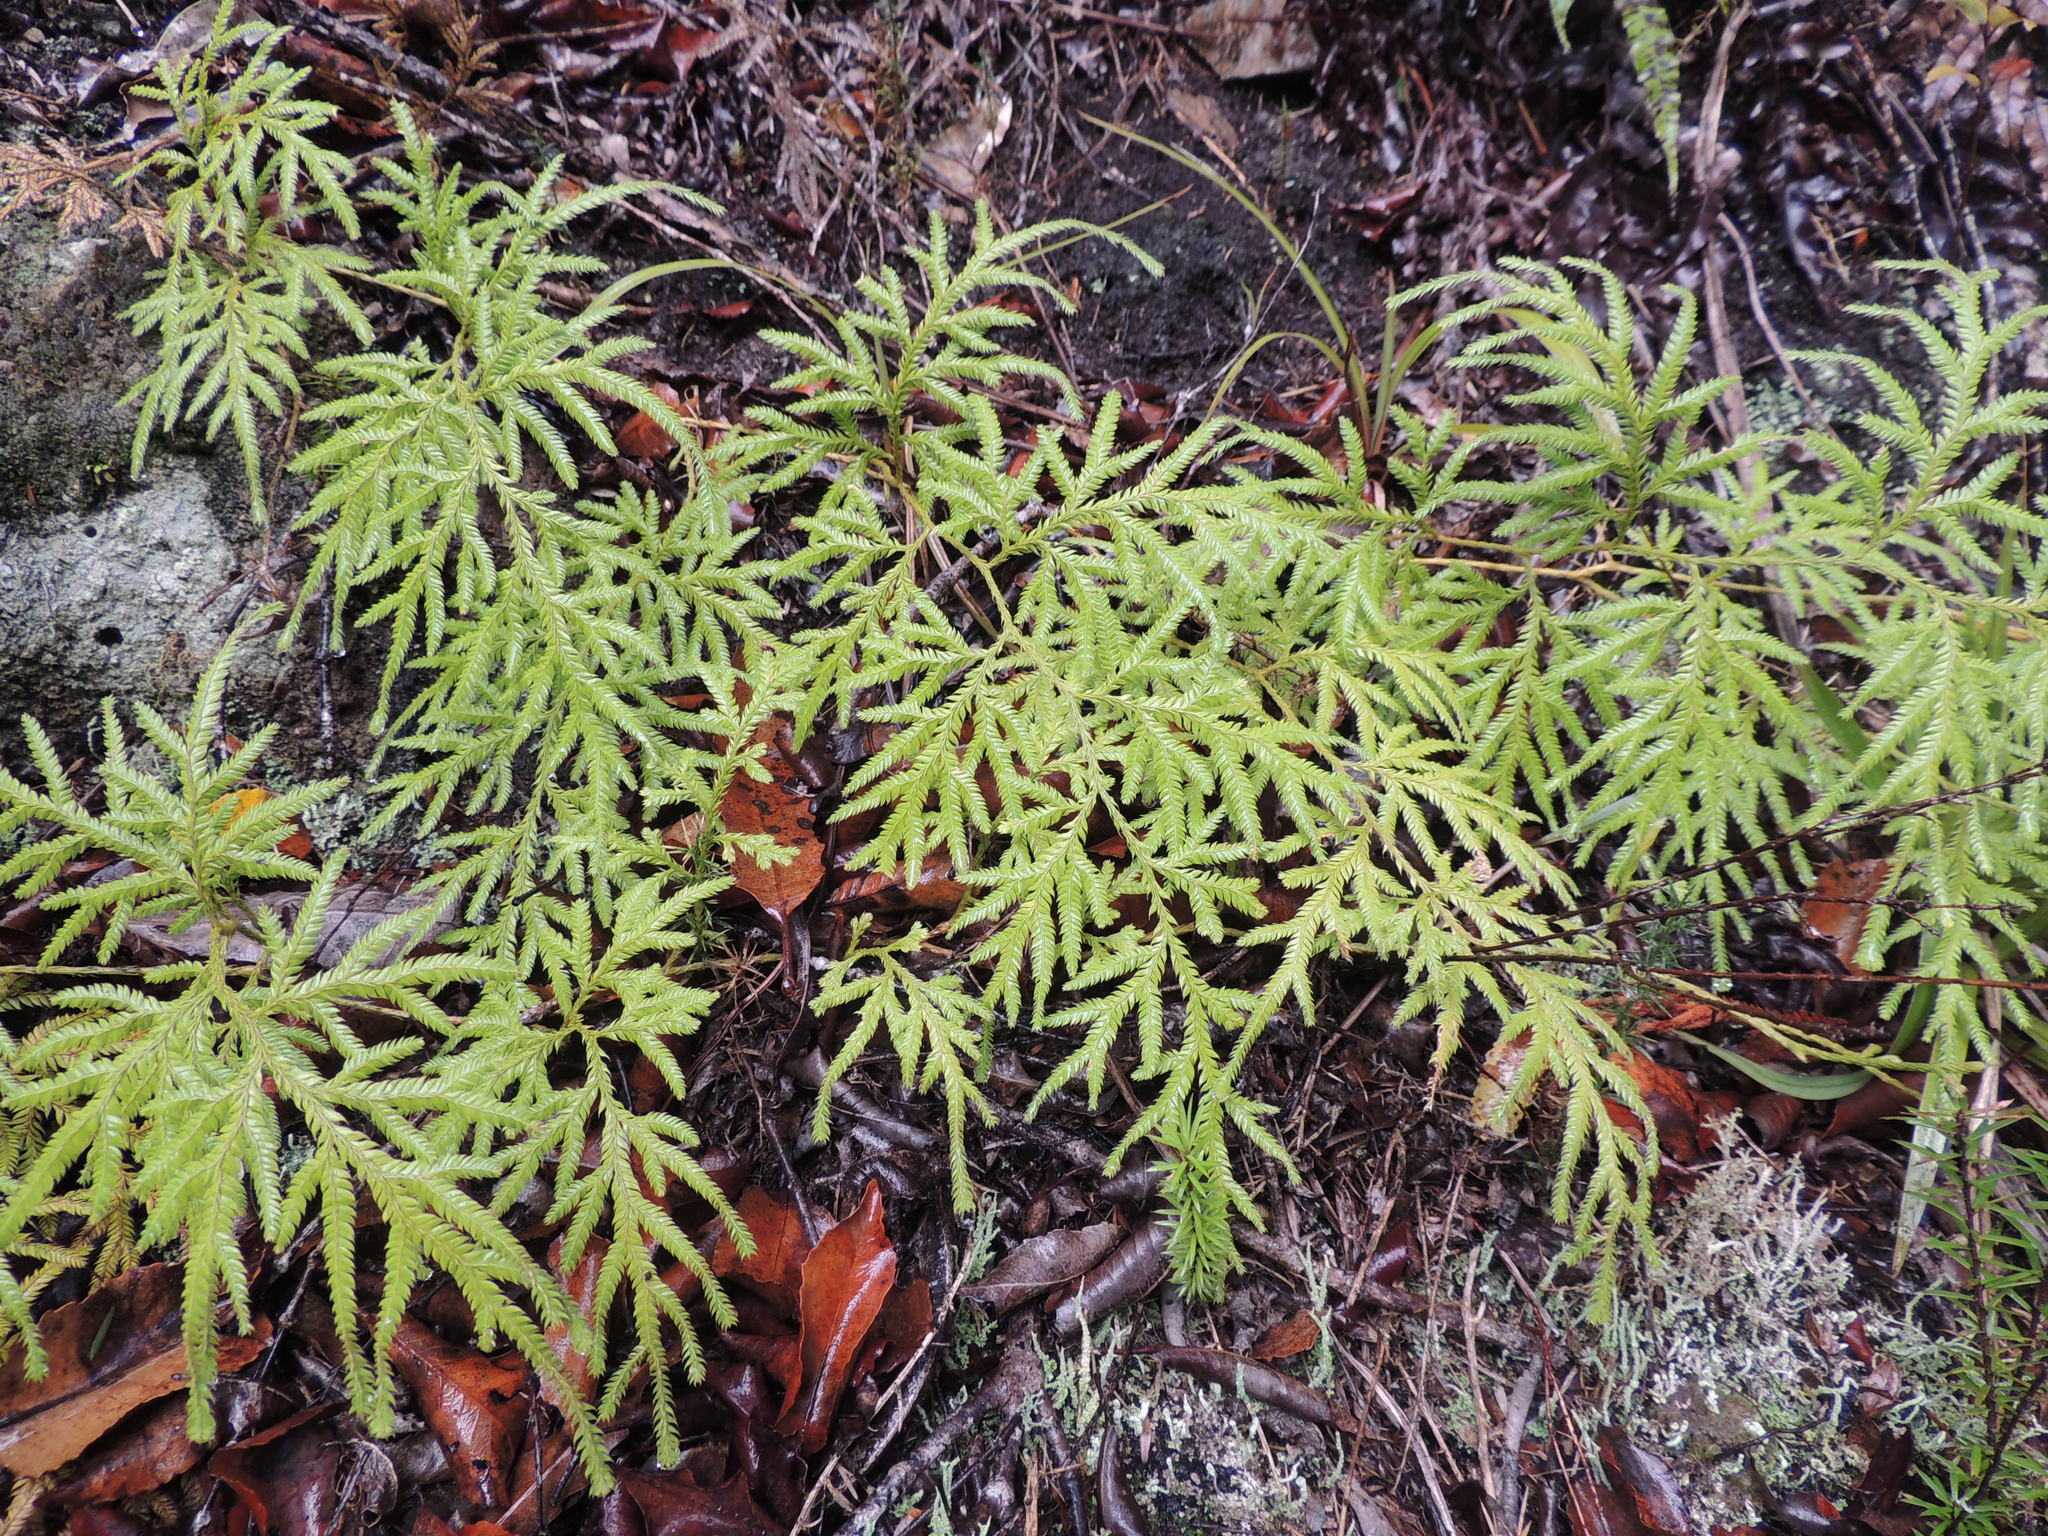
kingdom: Plantae
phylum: Tracheophyta
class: Lycopodiopsida
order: Lycopodiales
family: Lycopodiaceae
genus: Lycopodium
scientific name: Lycopodium volubile
